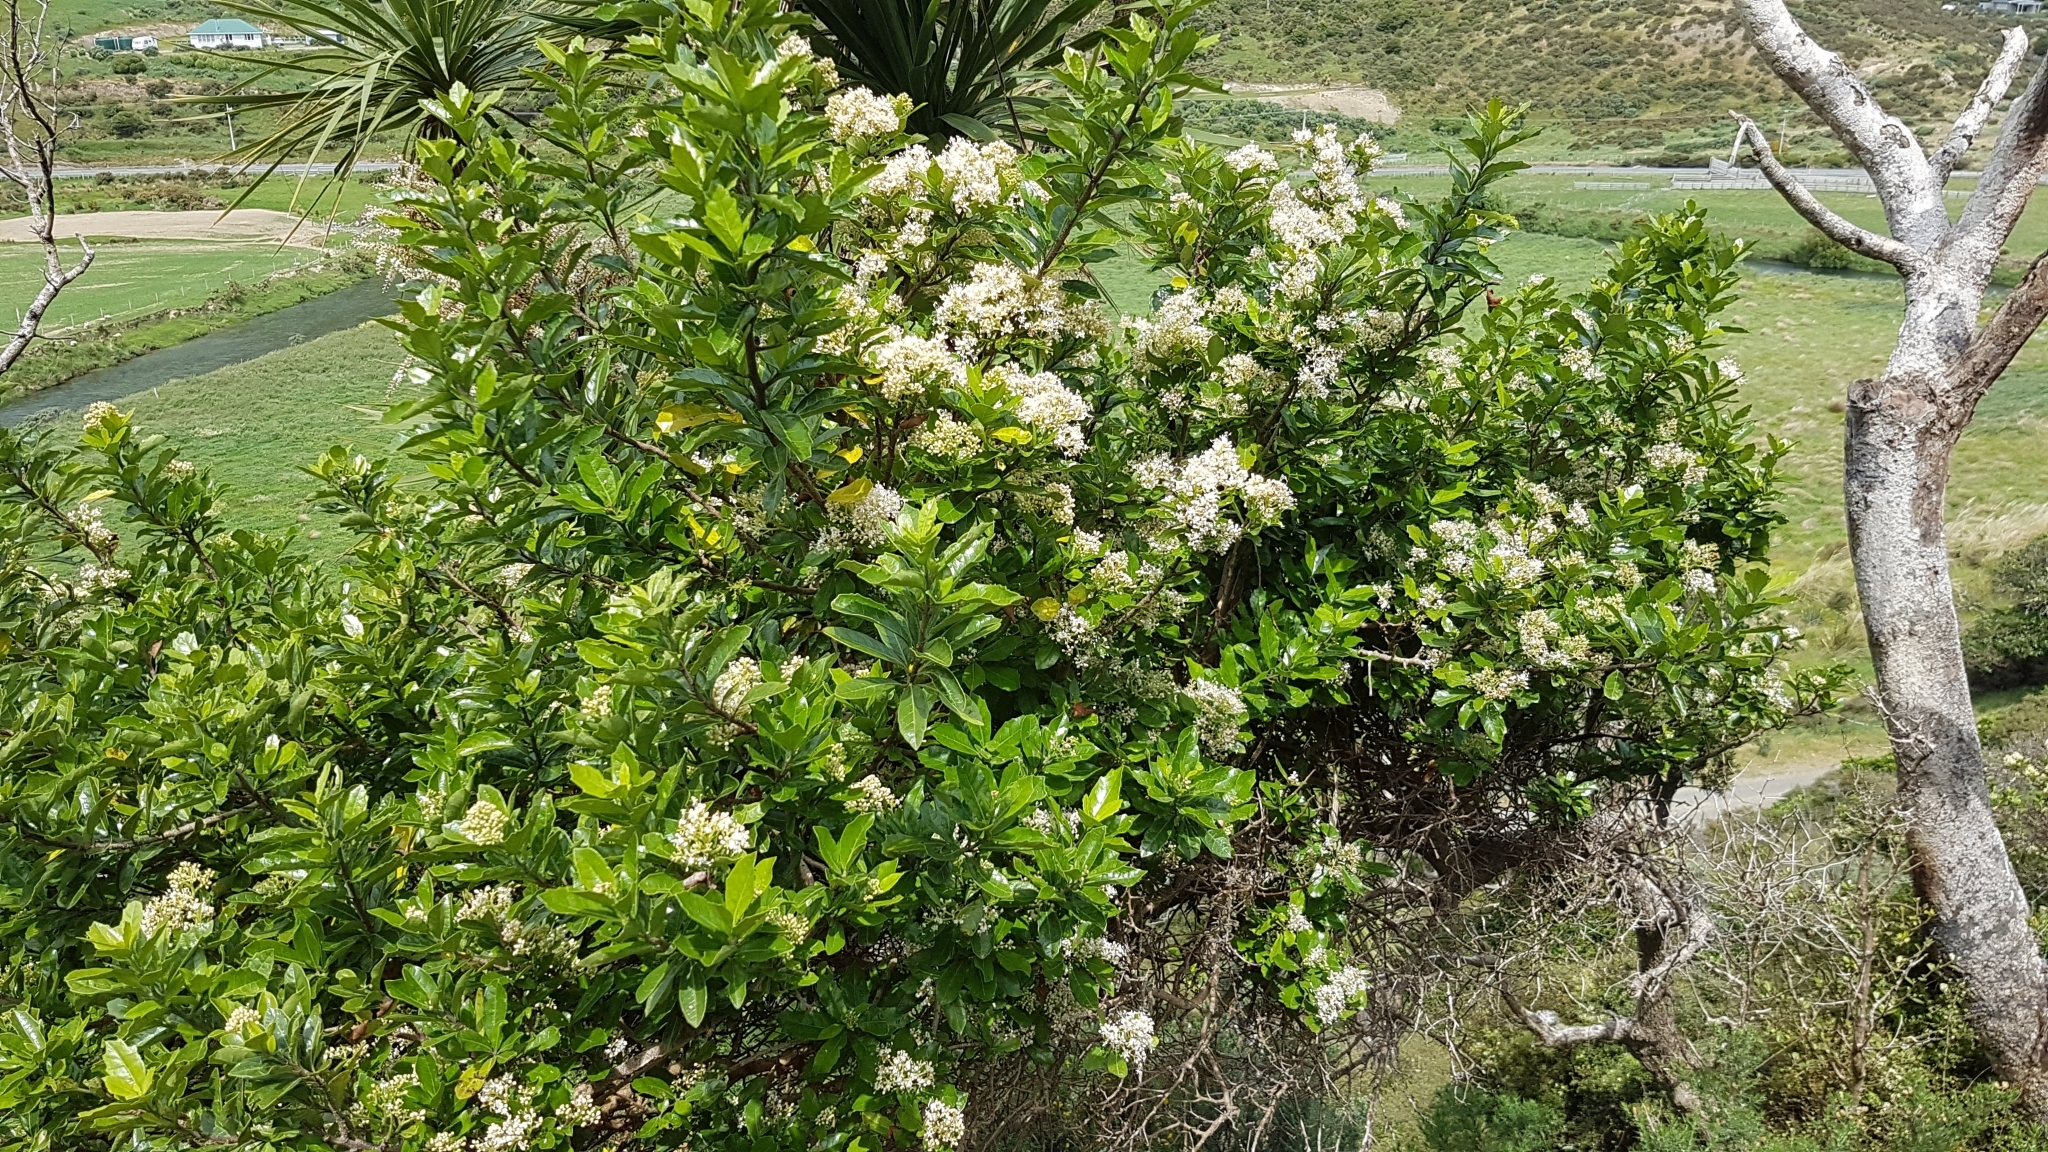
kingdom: Plantae
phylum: Tracheophyta
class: Magnoliopsida
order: Apiales
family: Pennantiaceae
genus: Pennantia
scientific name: Pennantia corymbosa
